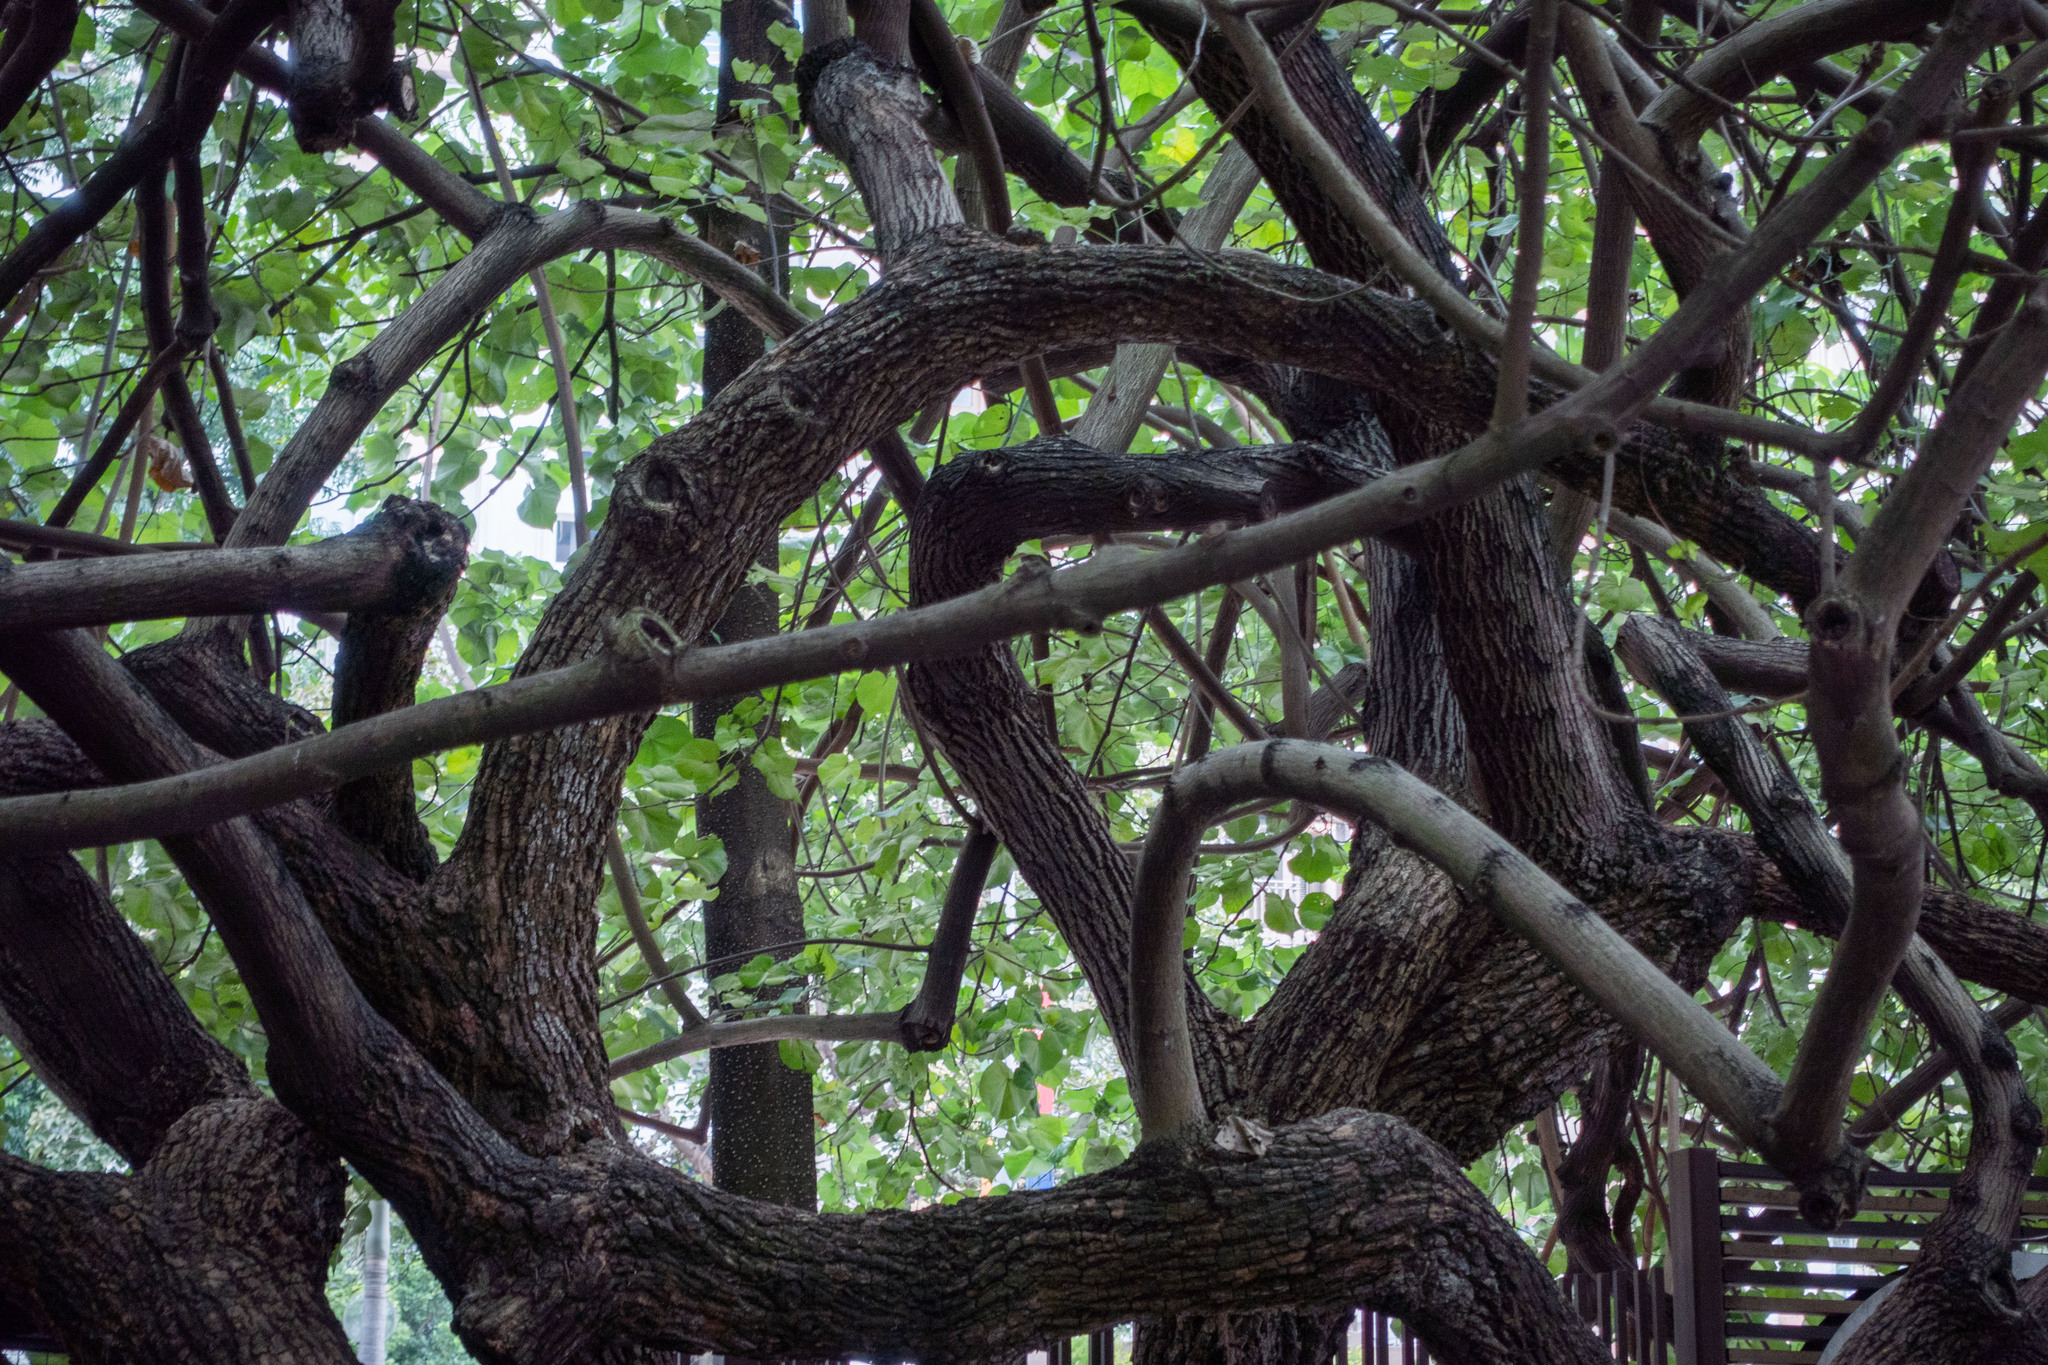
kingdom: Plantae
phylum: Tracheophyta
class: Magnoliopsida
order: Malvales
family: Malvaceae
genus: Talipariti
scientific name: Talipariti tiliaceum
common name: Sea hibiscus
